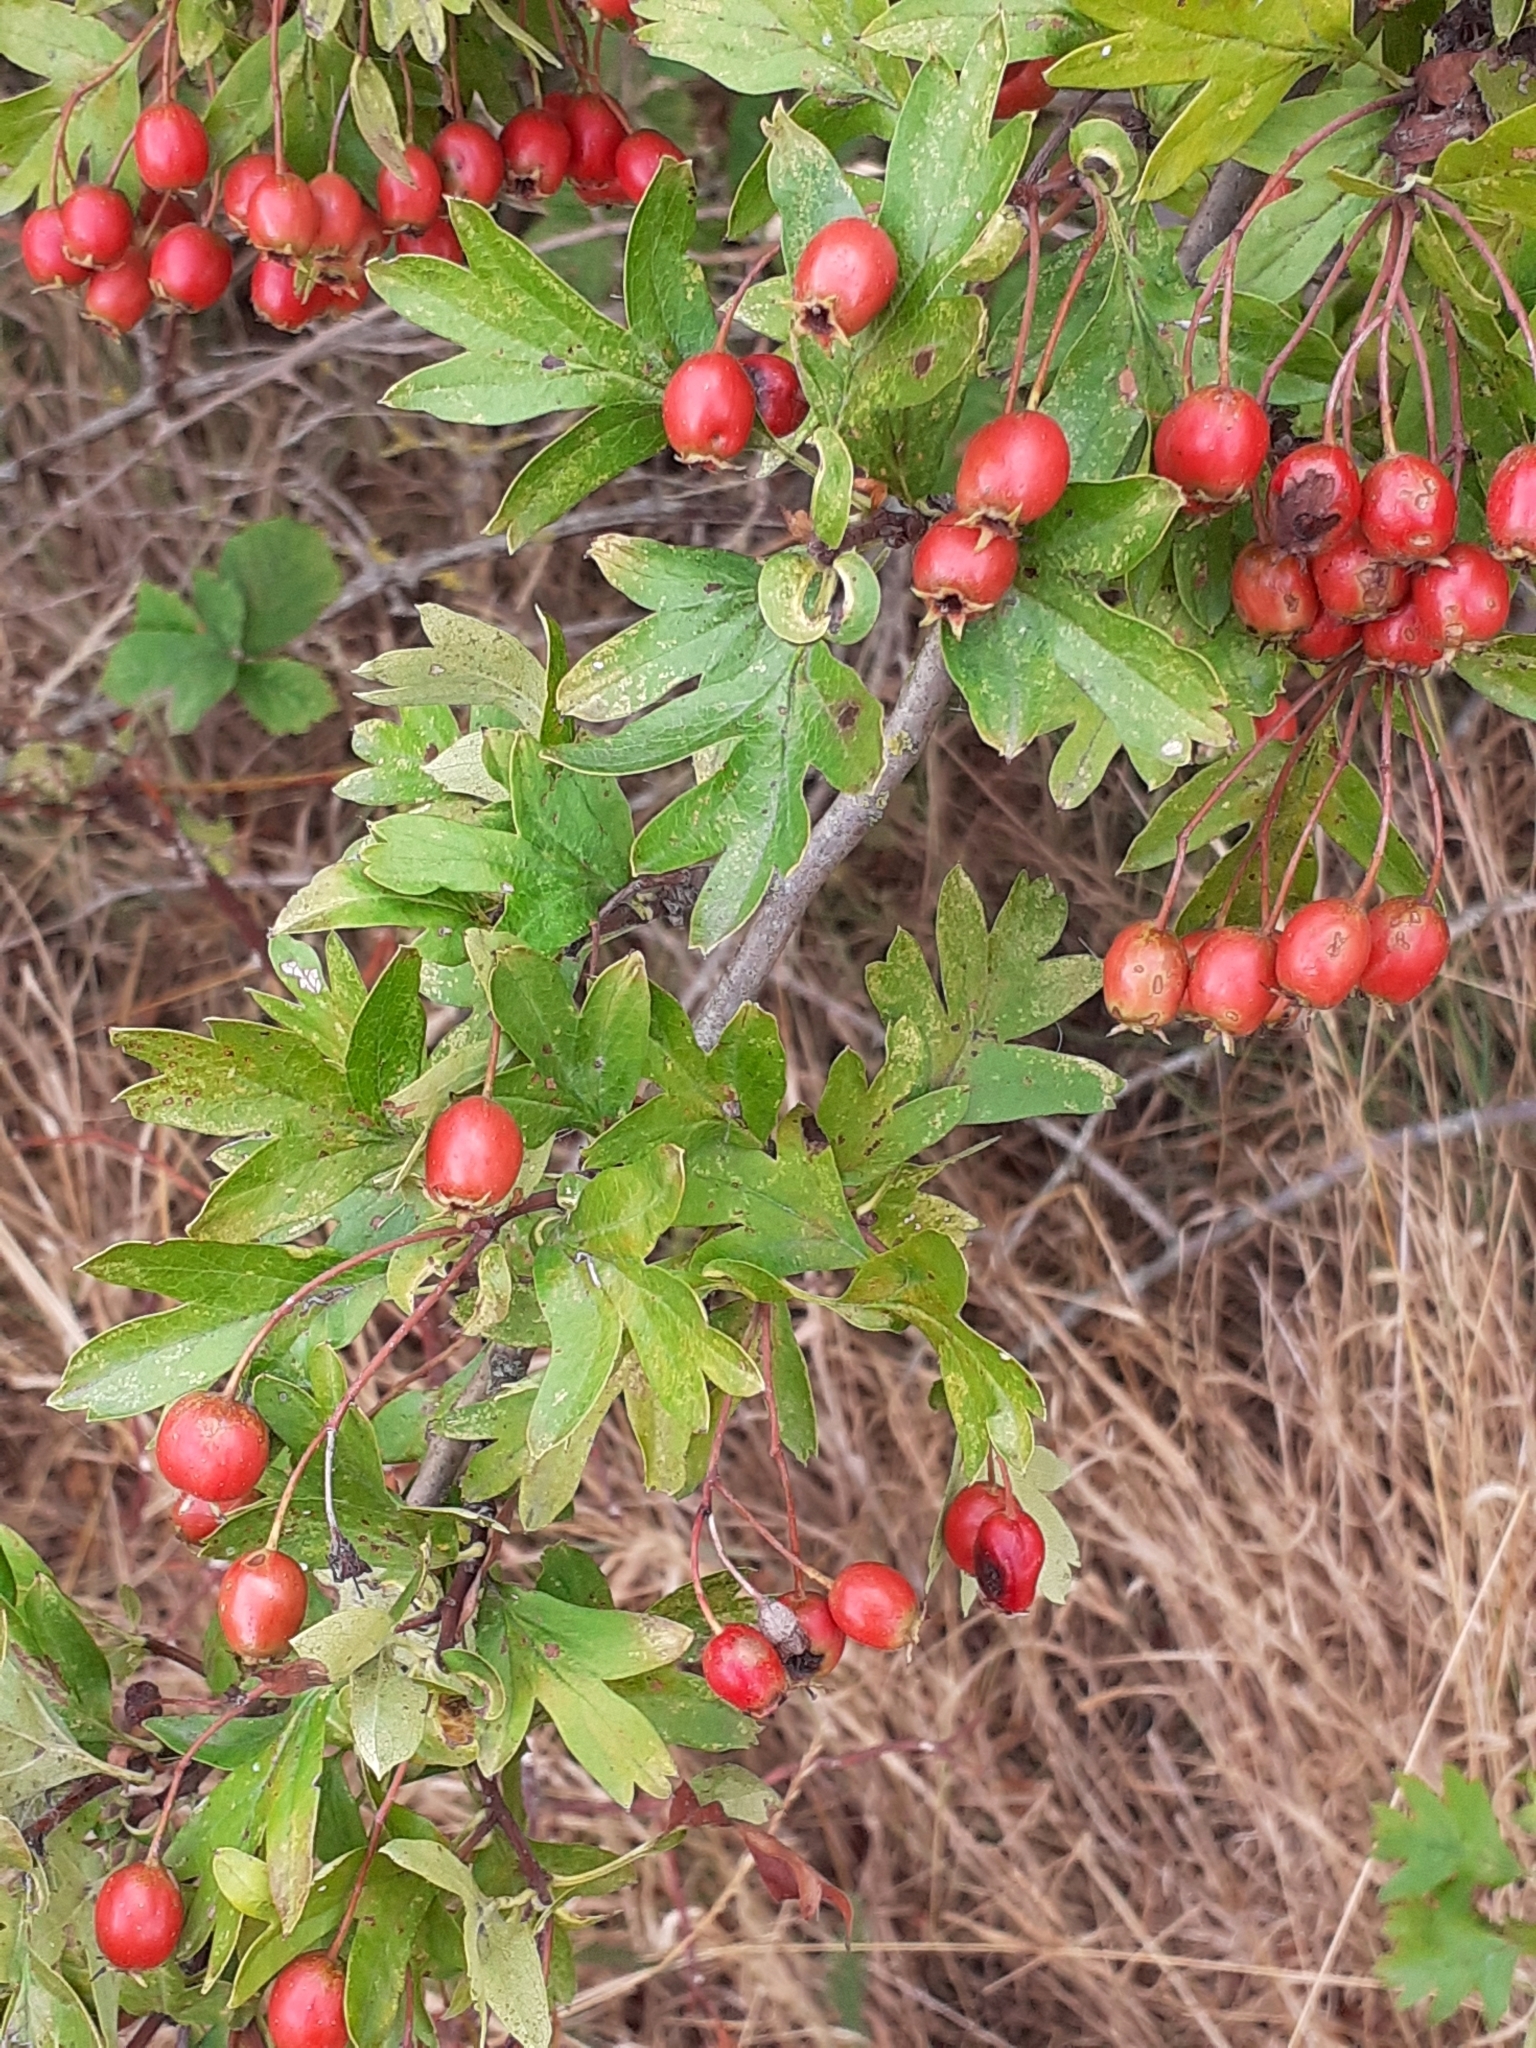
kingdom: Plantae
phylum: Tracheophyta
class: Magnoliopsida
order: Rosales
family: Rosaceae
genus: Crataegus
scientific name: Crataegus monogyna
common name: Hawthorn
